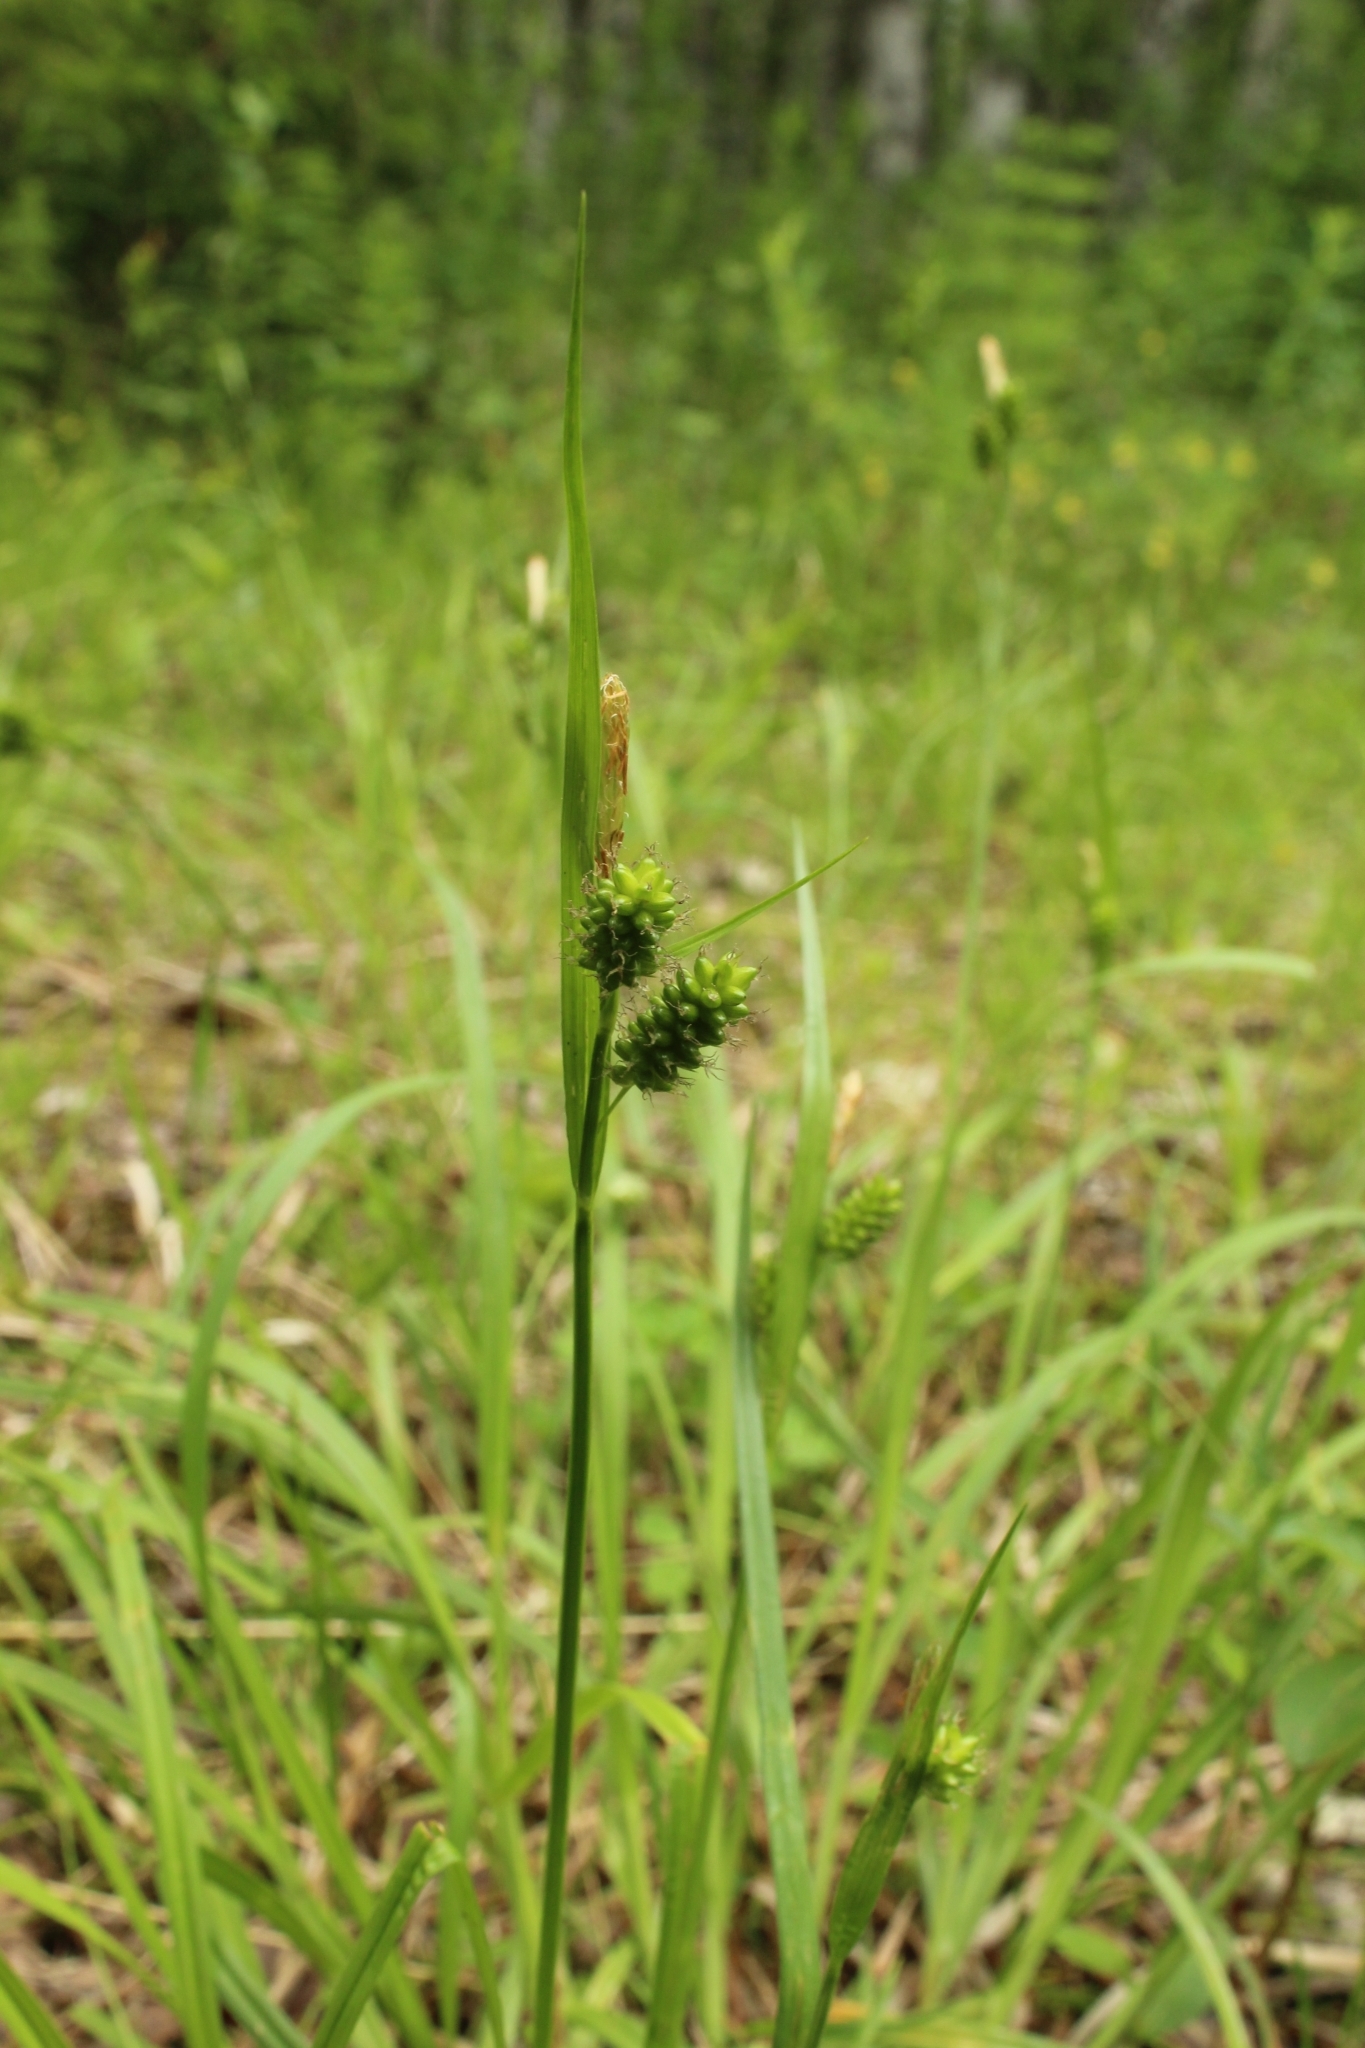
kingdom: Plantae
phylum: Tracheophyta
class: Liliopsida
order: Poales
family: Cyperaceae
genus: Carex
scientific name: Carex pallescens
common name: Pale sedge
